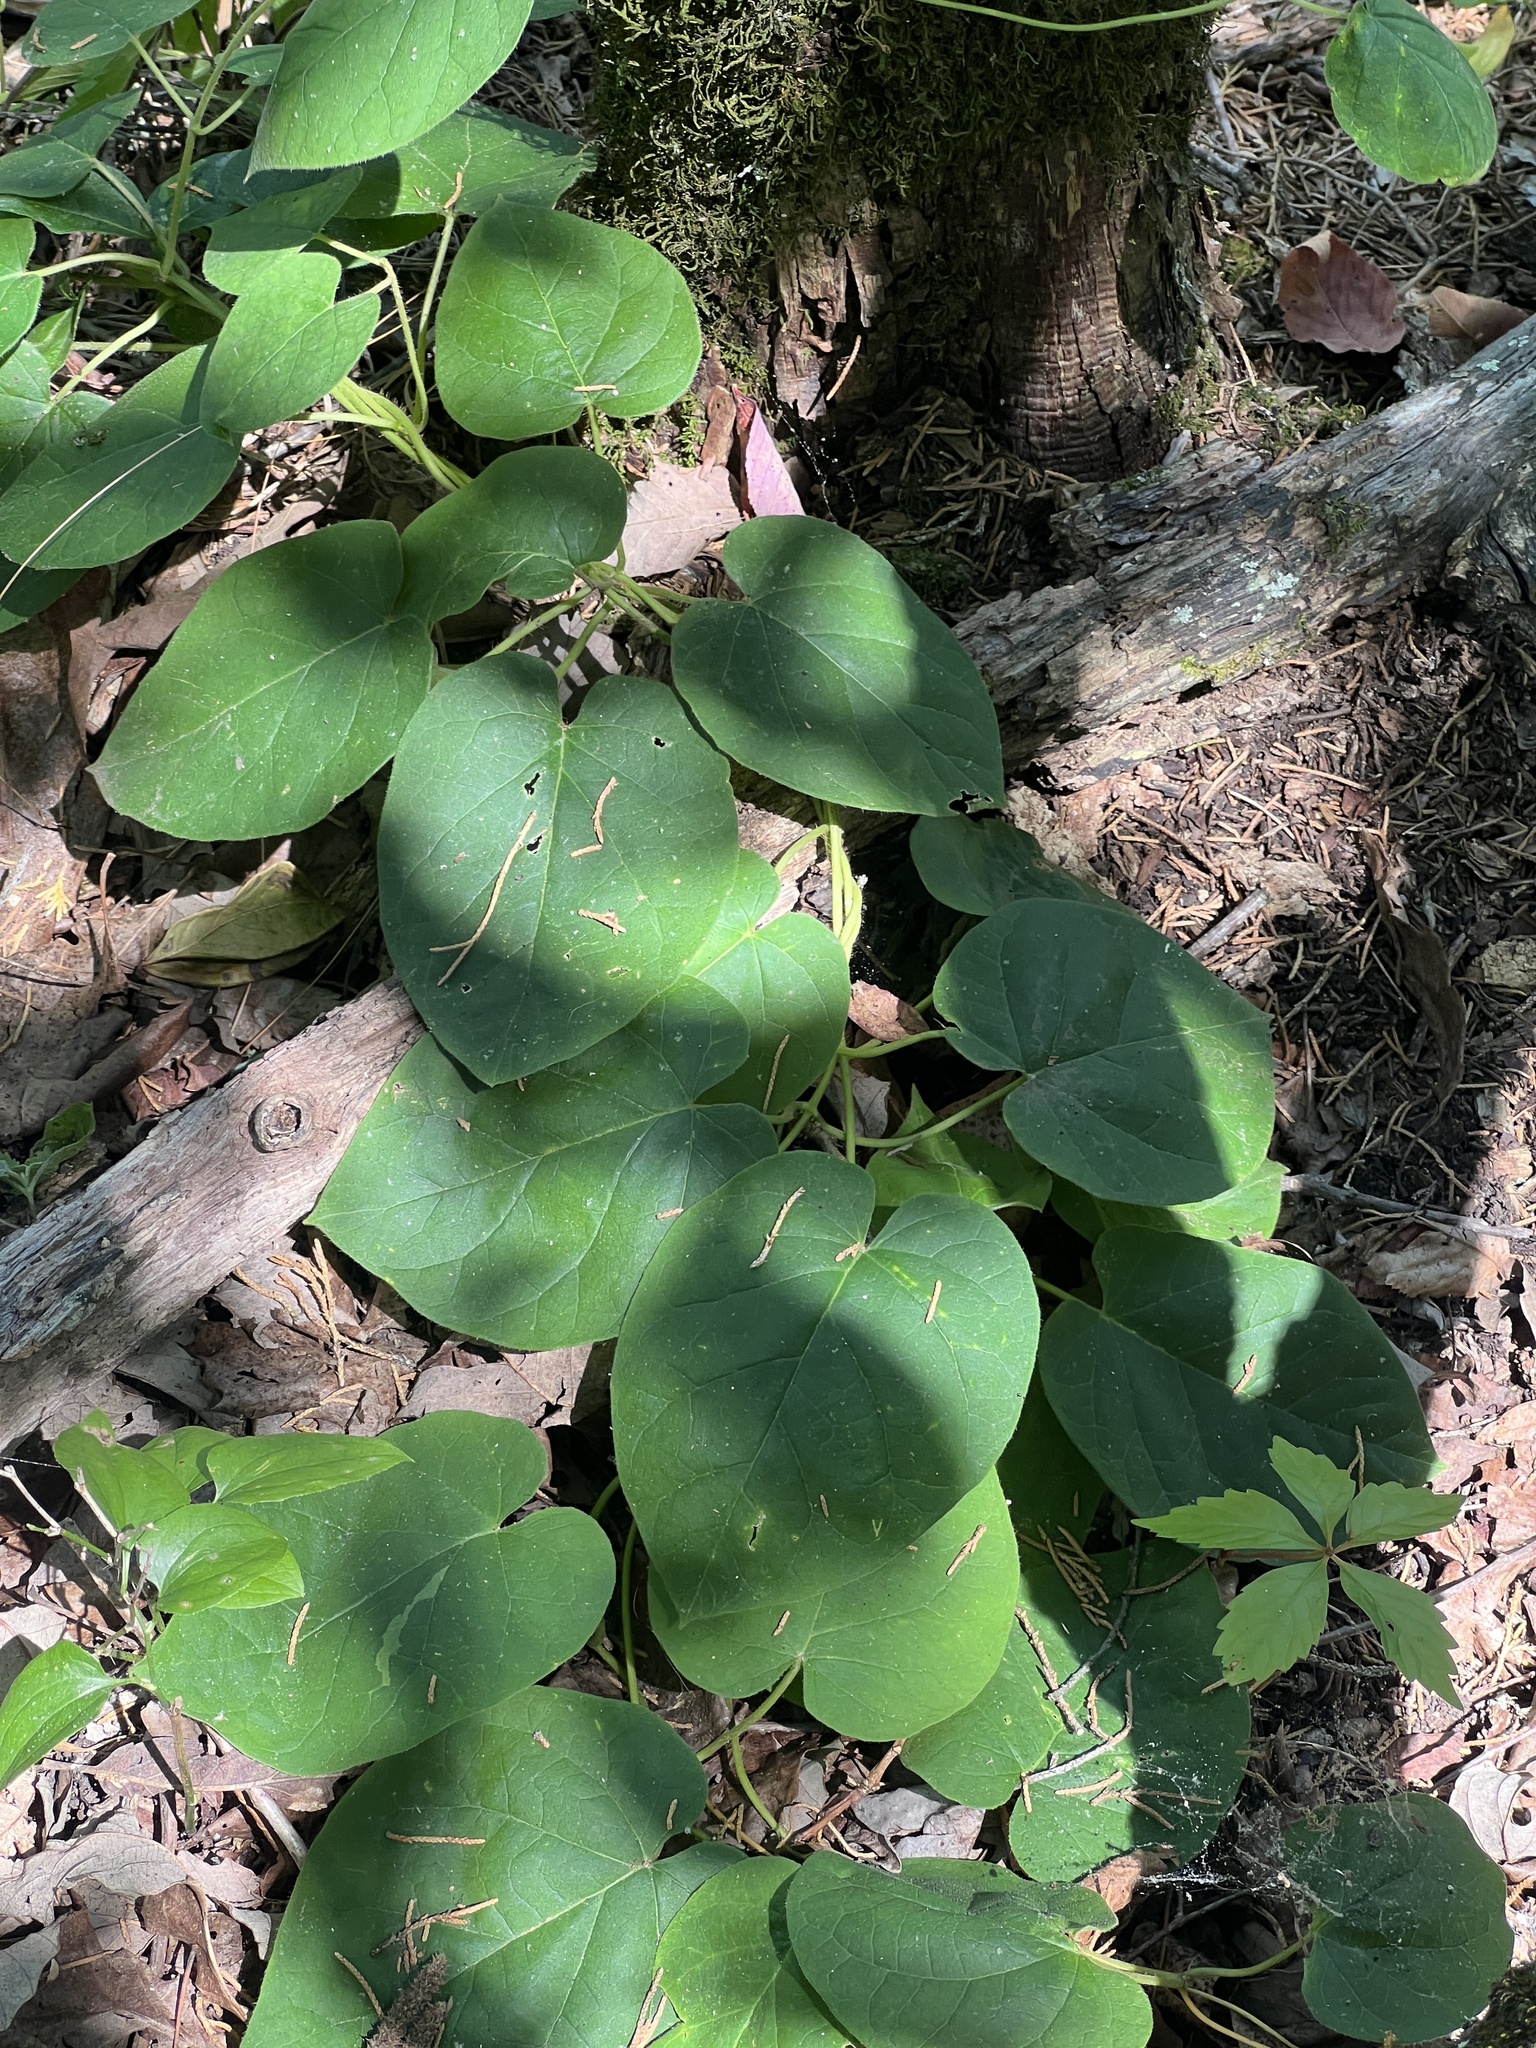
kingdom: Plantae
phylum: Tracheophyta
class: Magnoliopsida
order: Gentianales
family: Apocynaceae
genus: Matelea
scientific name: Matelea decipiens
